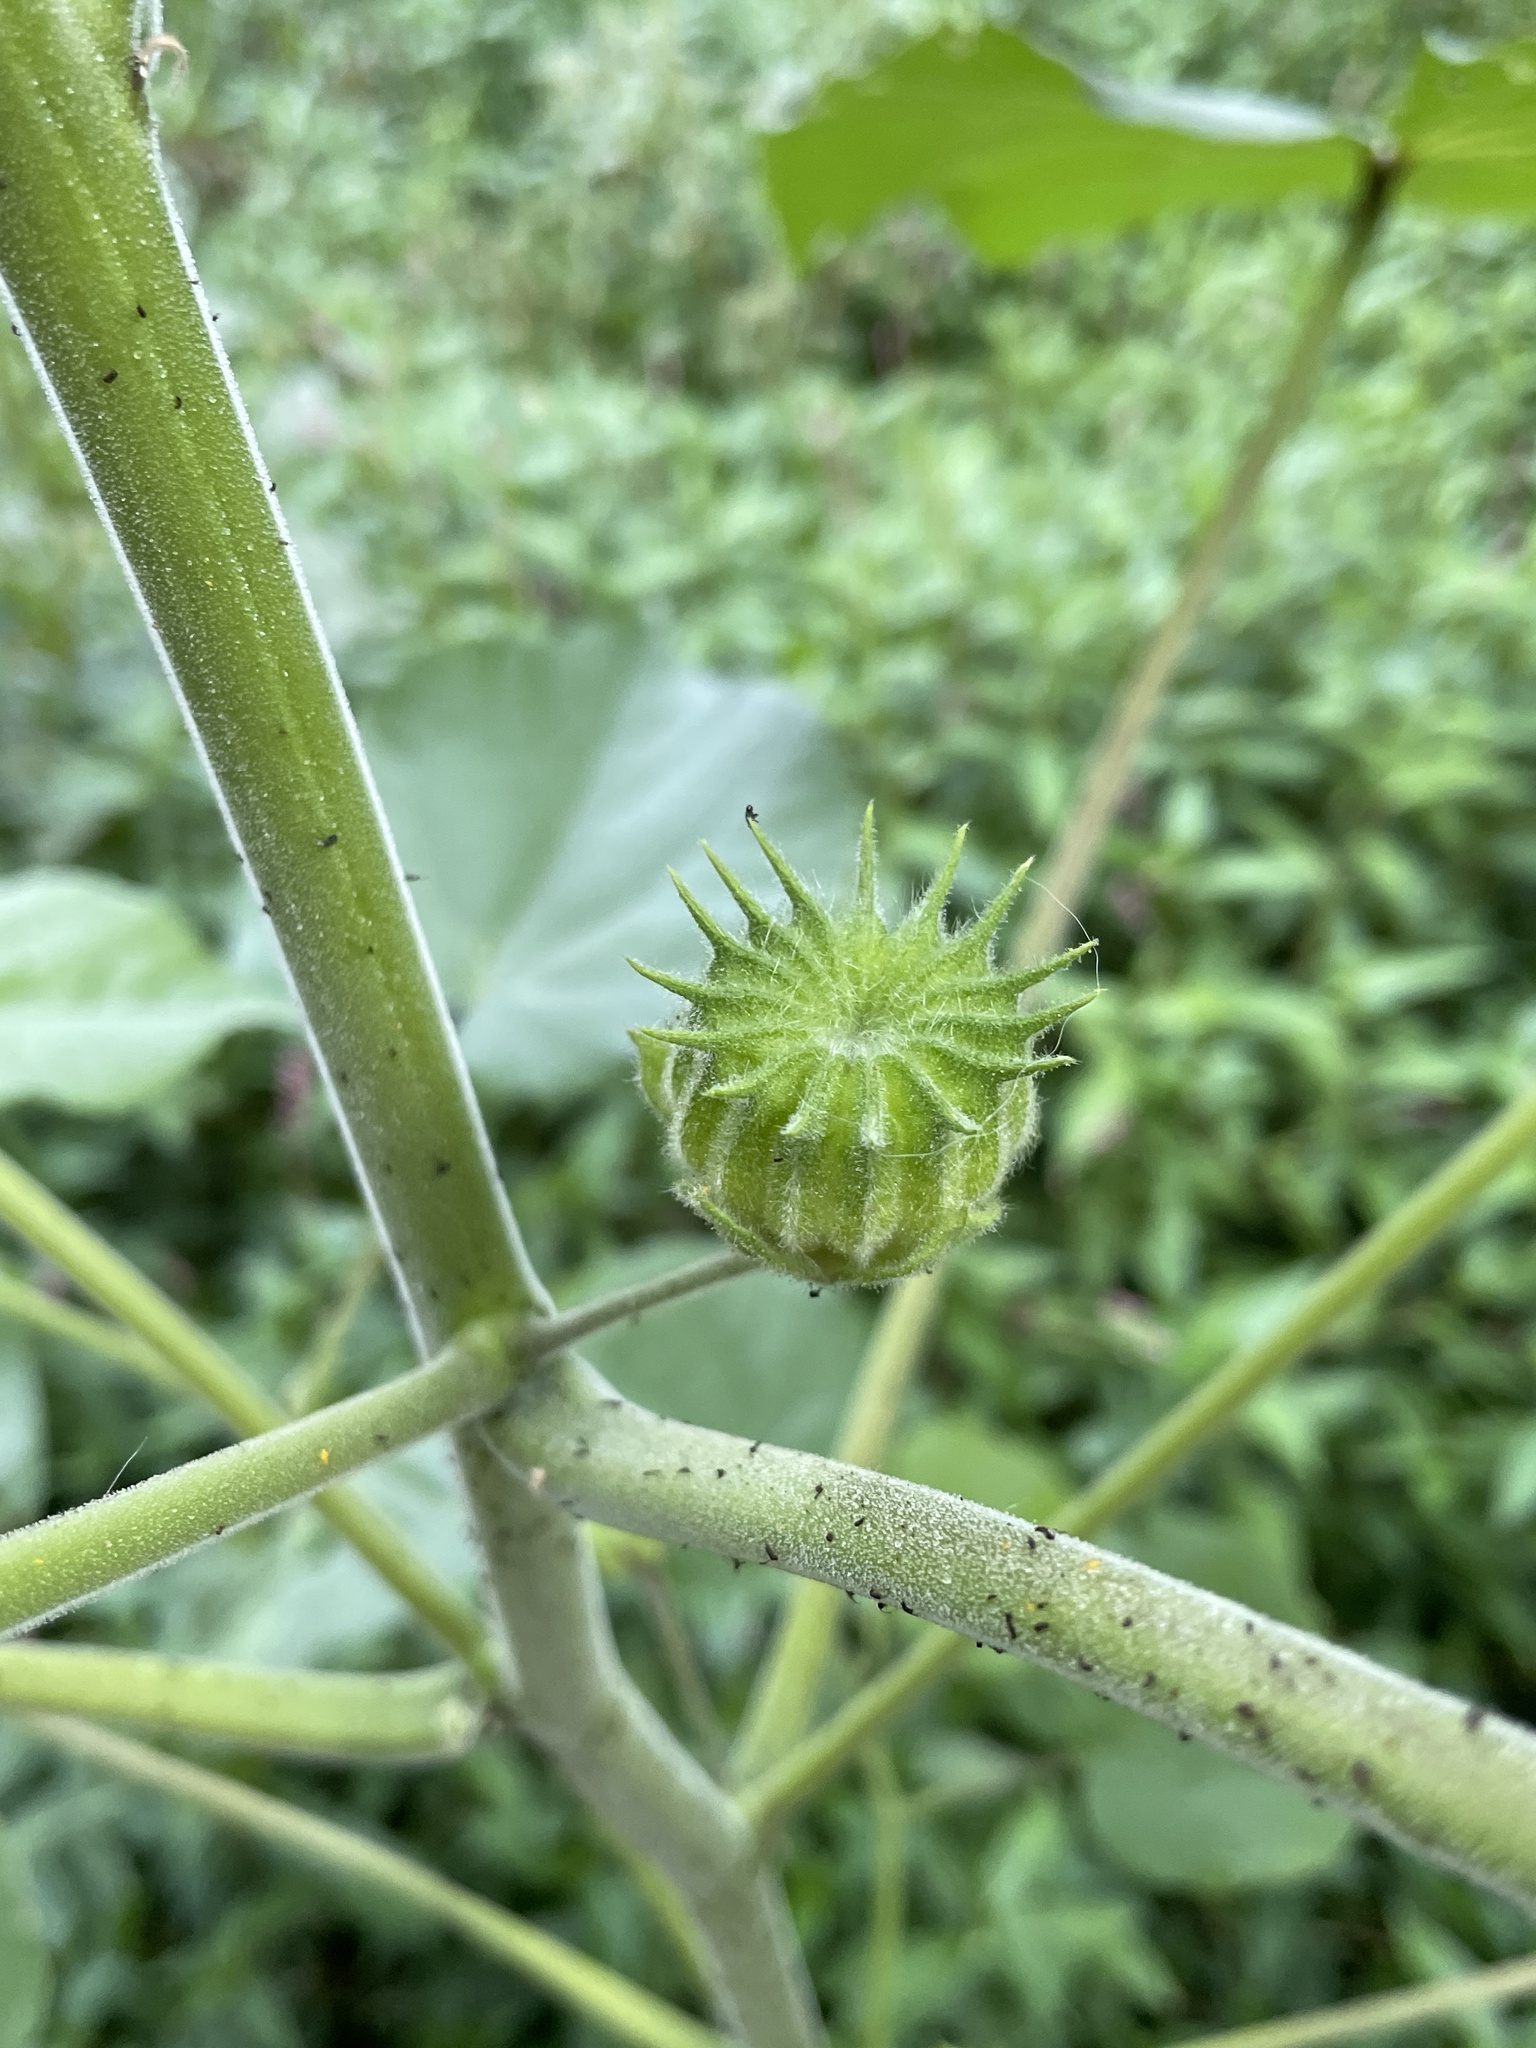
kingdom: Plantae
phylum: Tracheophyta
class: Magnoliopsida
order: Malvales
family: Malvaceae
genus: Abutilon
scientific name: Abutilon theophrasti
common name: Velvetleaf
